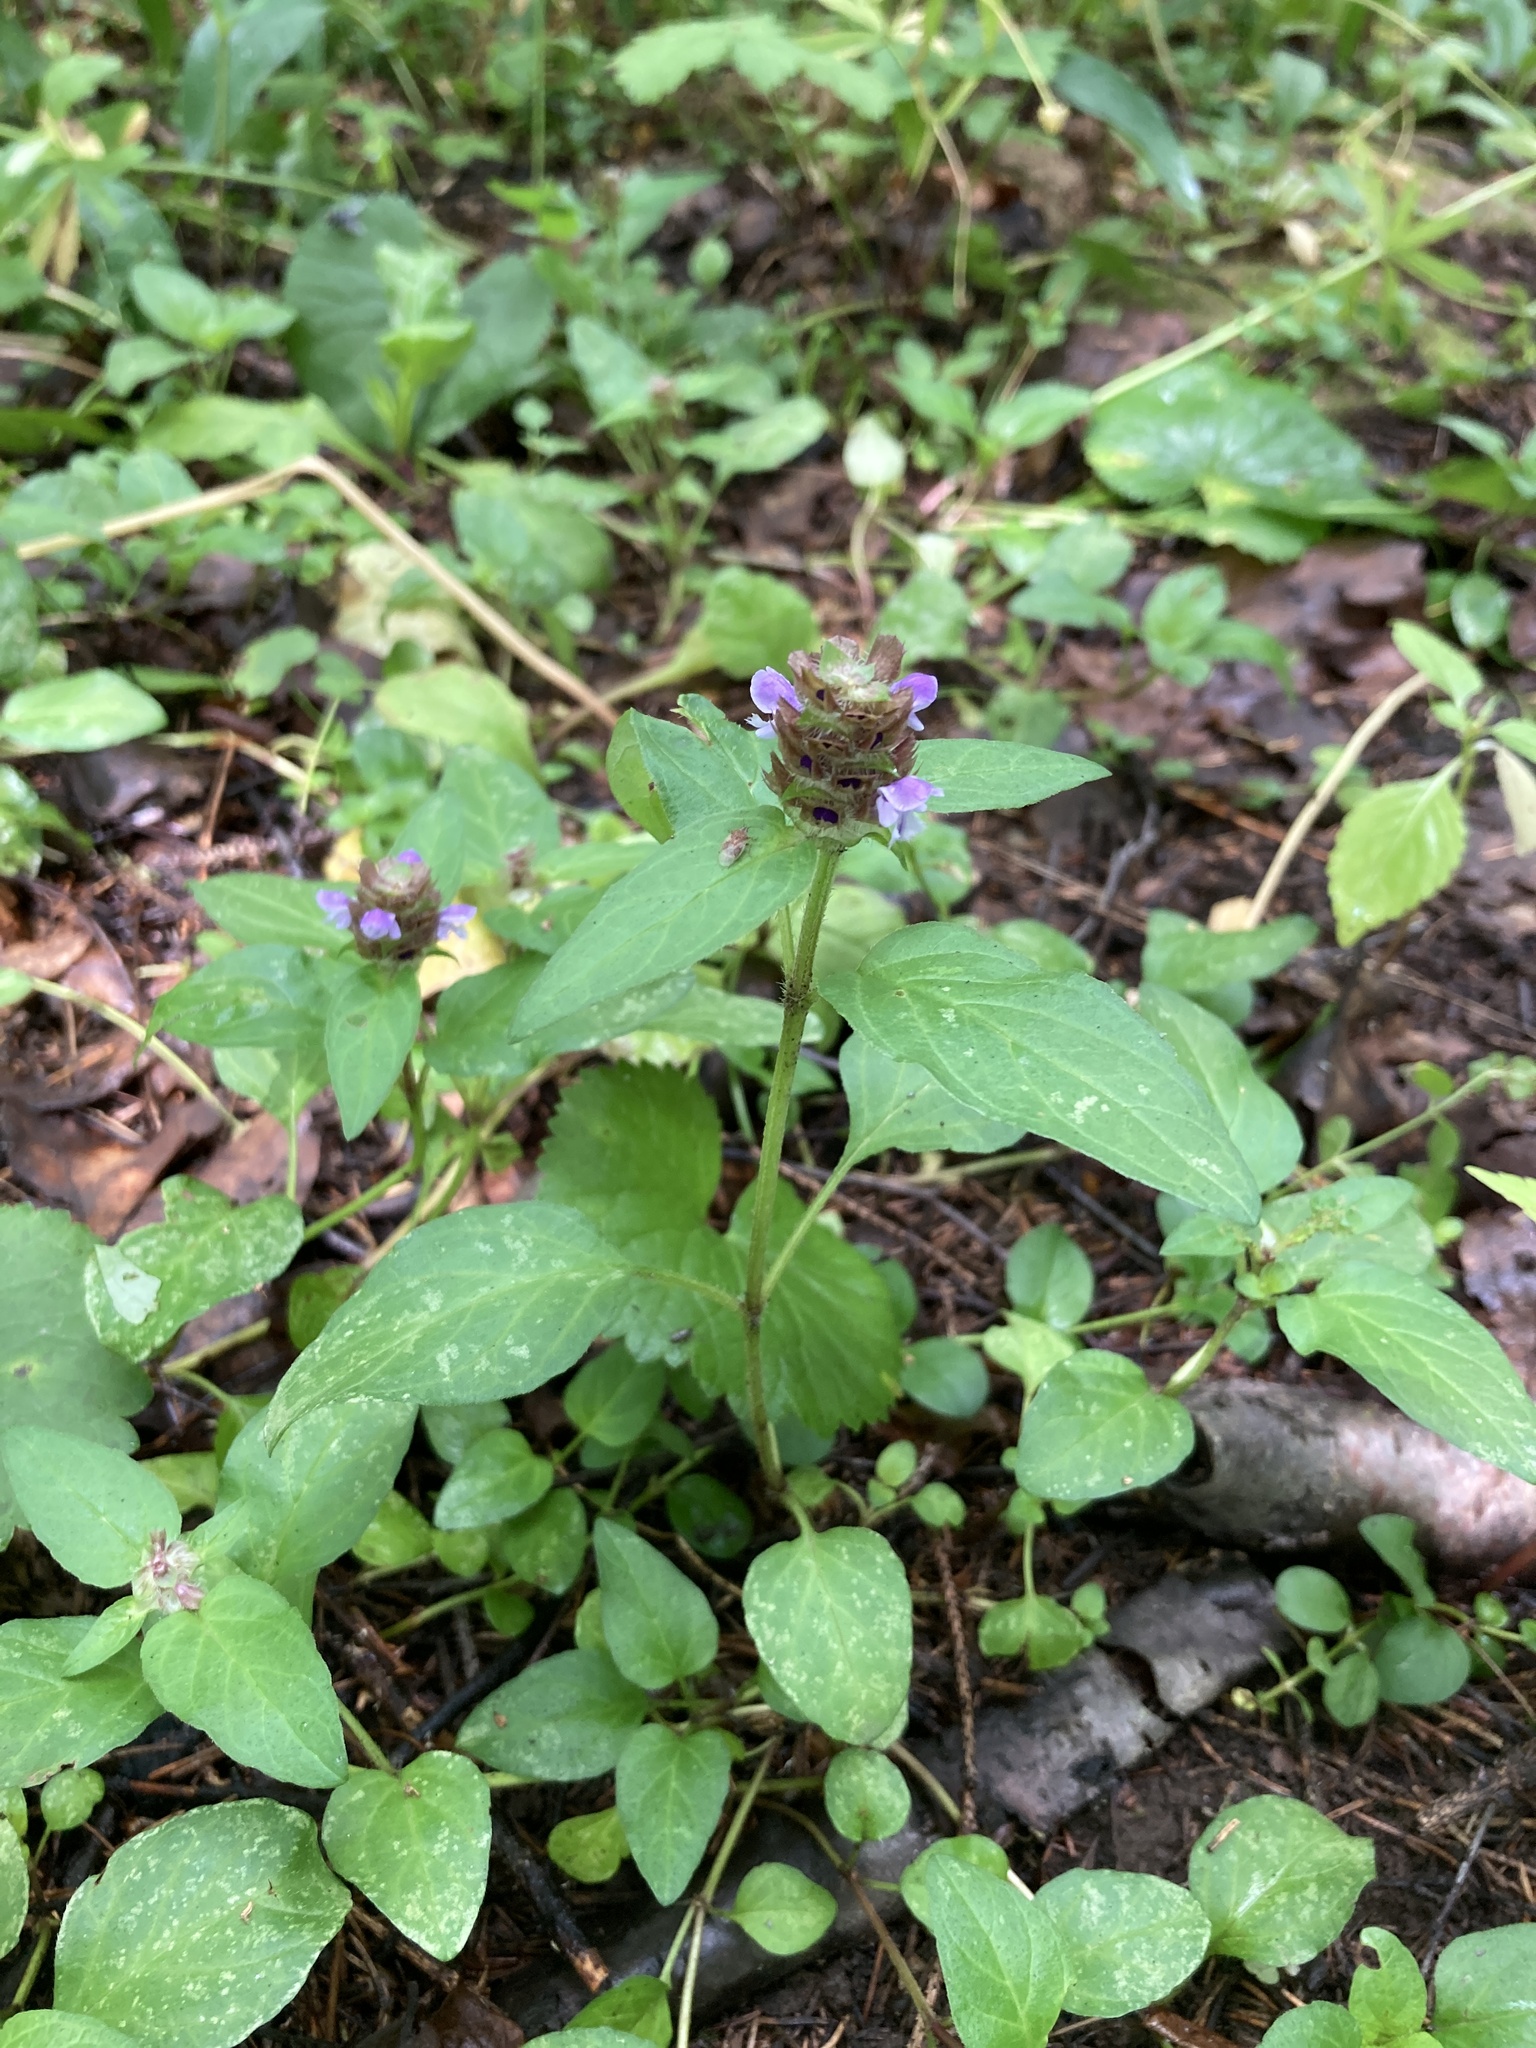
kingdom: Plantae
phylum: Tracheophyta
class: Magnoliopsida
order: Lamiales
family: Lamiaceae
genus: Prunella
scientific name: Prunella vulgaris
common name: Heal-all
